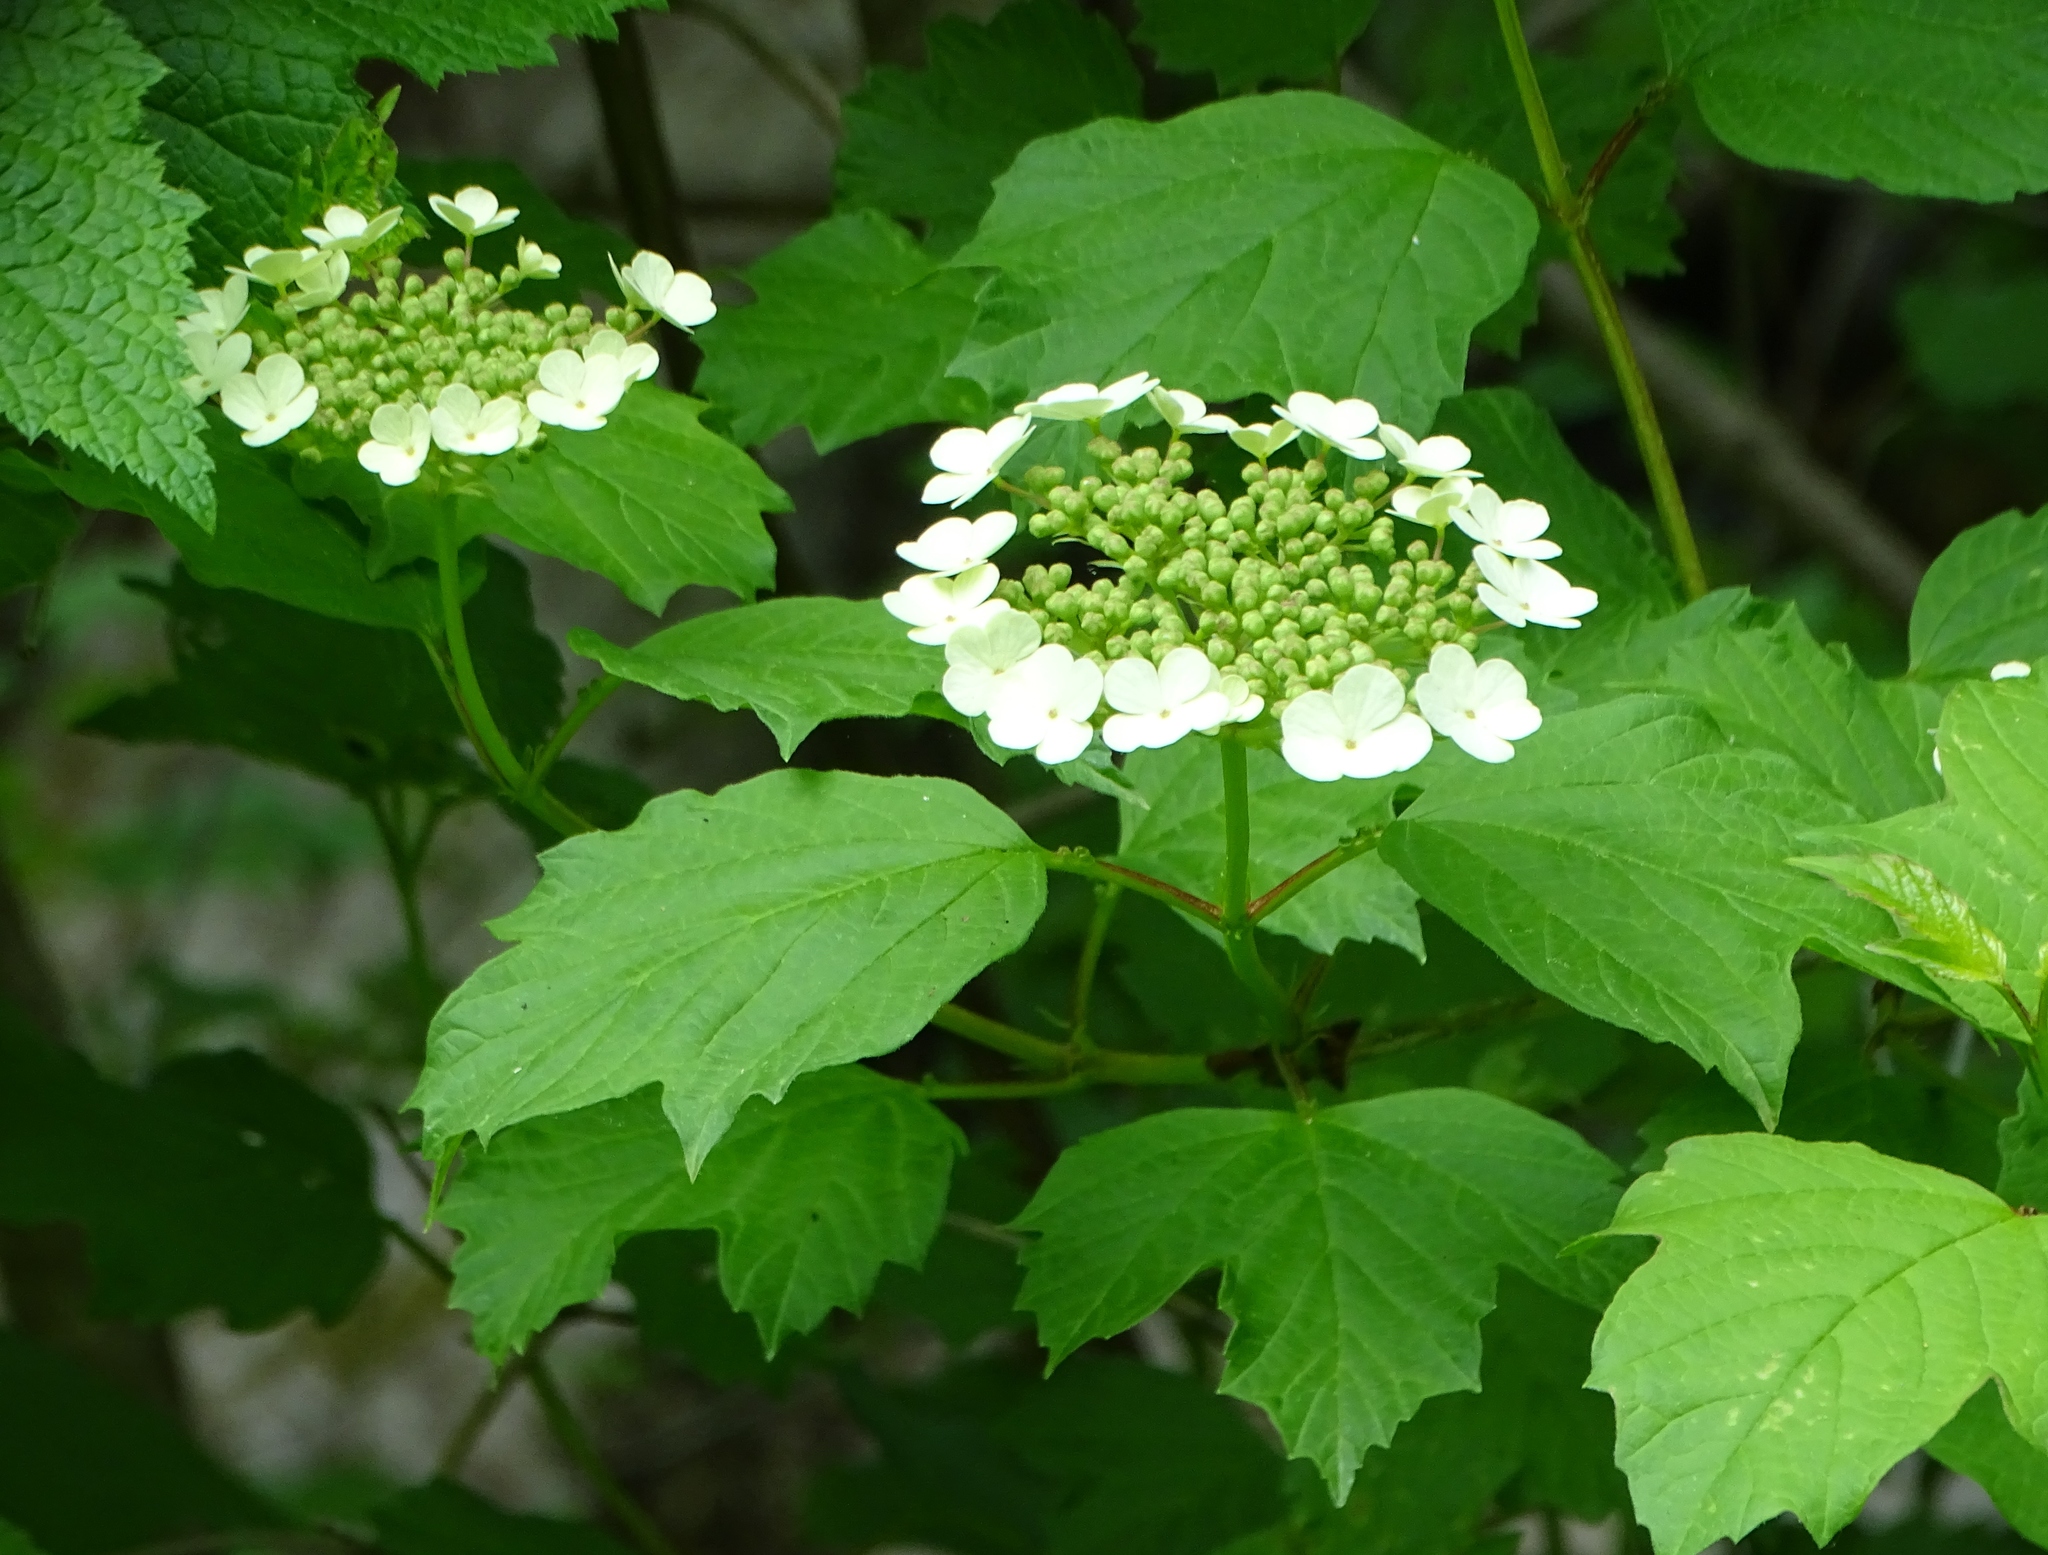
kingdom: Plantae
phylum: Tracheophyta
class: Magnoliopsida
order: Dipsacales
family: Viburnaceae
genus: Viburnum
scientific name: Viburnum opulus
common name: Guelder-rose
